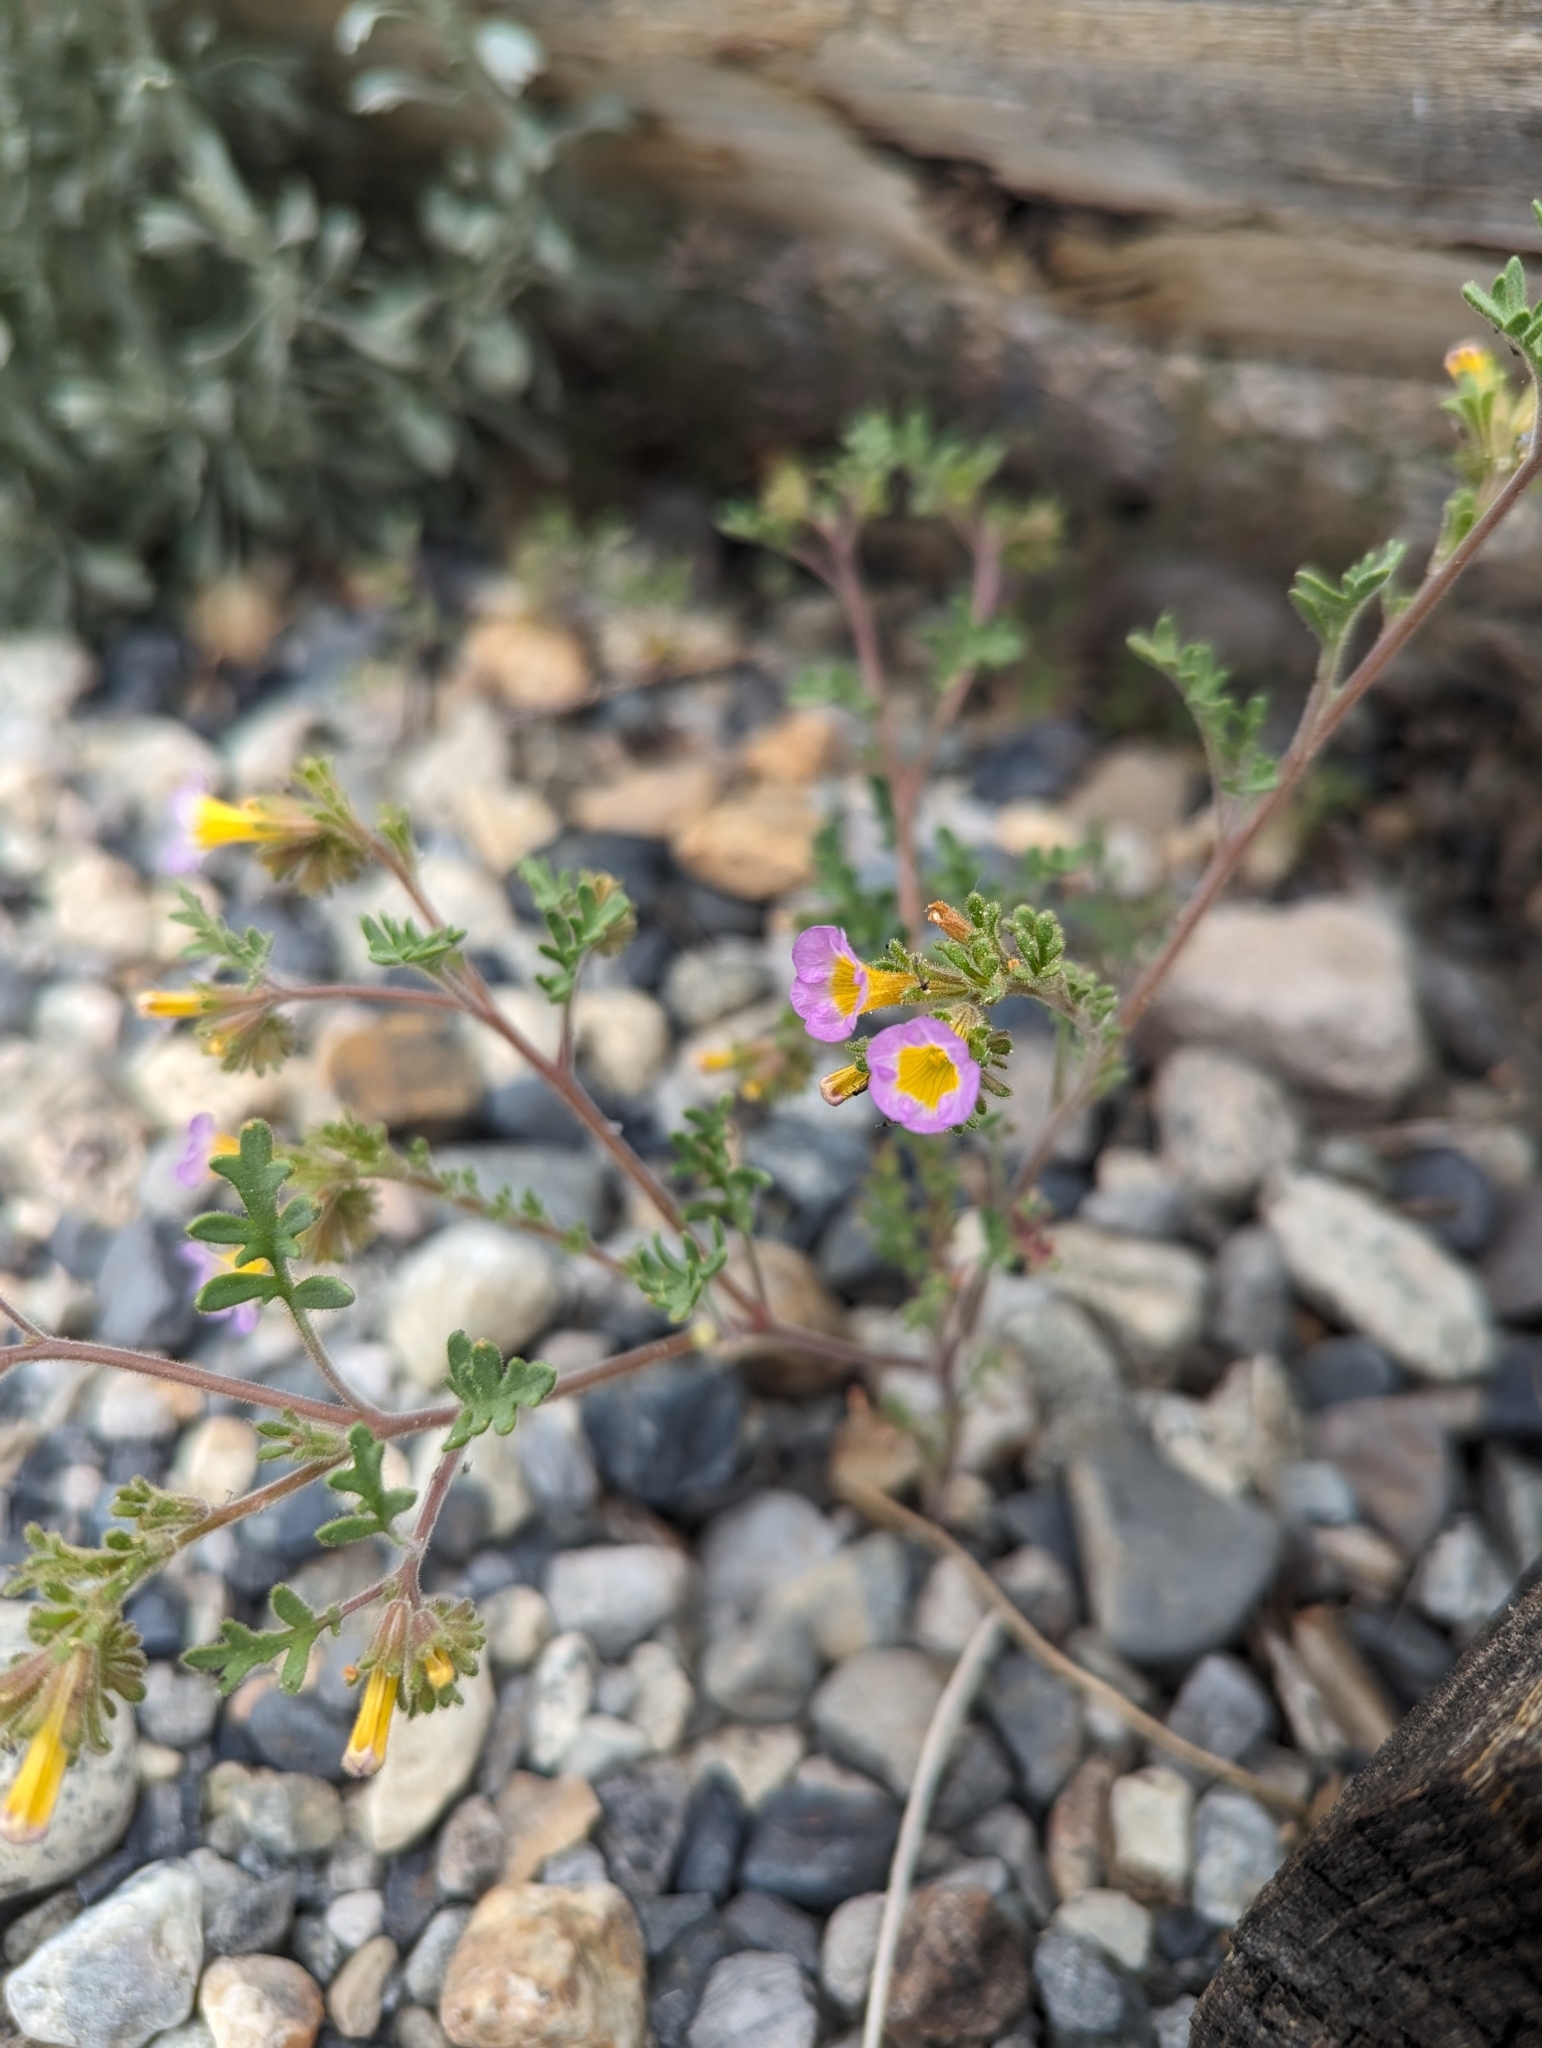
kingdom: Plantae
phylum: Tracheophyta
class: Magnoliopsida
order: Boraginales
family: Hydrophyllaceae
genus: Phacelia
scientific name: Phacelia bicolor
